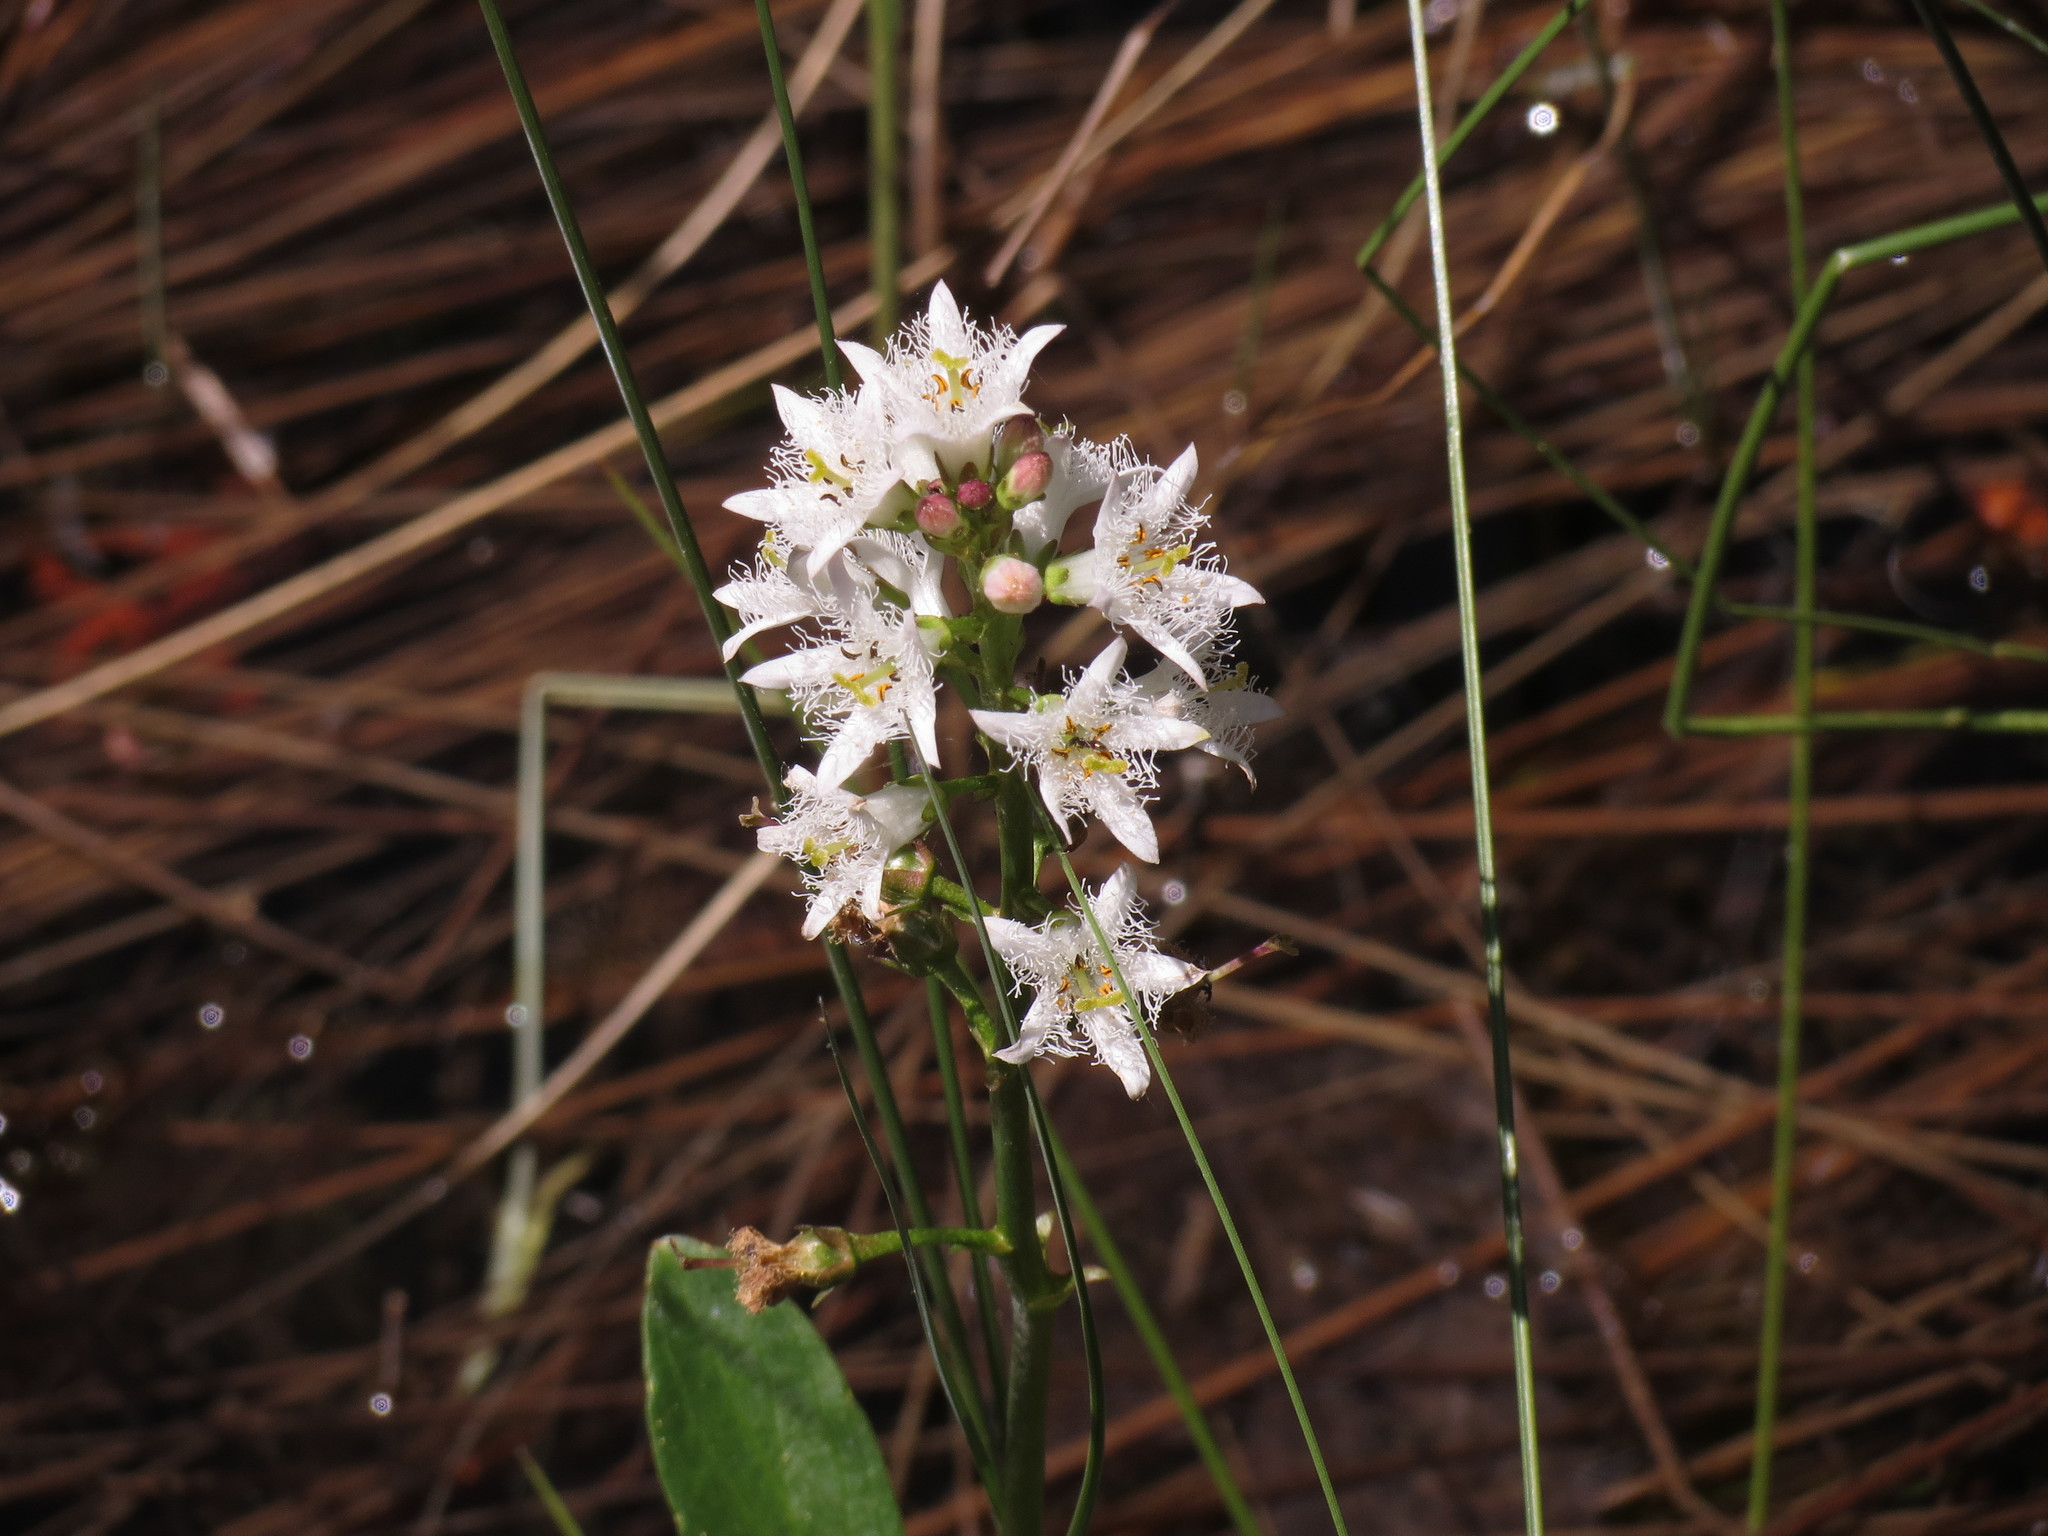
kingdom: Plantae
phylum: Tracheophyta
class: Magnoliopsida
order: Asterales
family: Menyanthaceae
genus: Menyanthes
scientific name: Menyanthes trifoliata
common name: Bogbean
